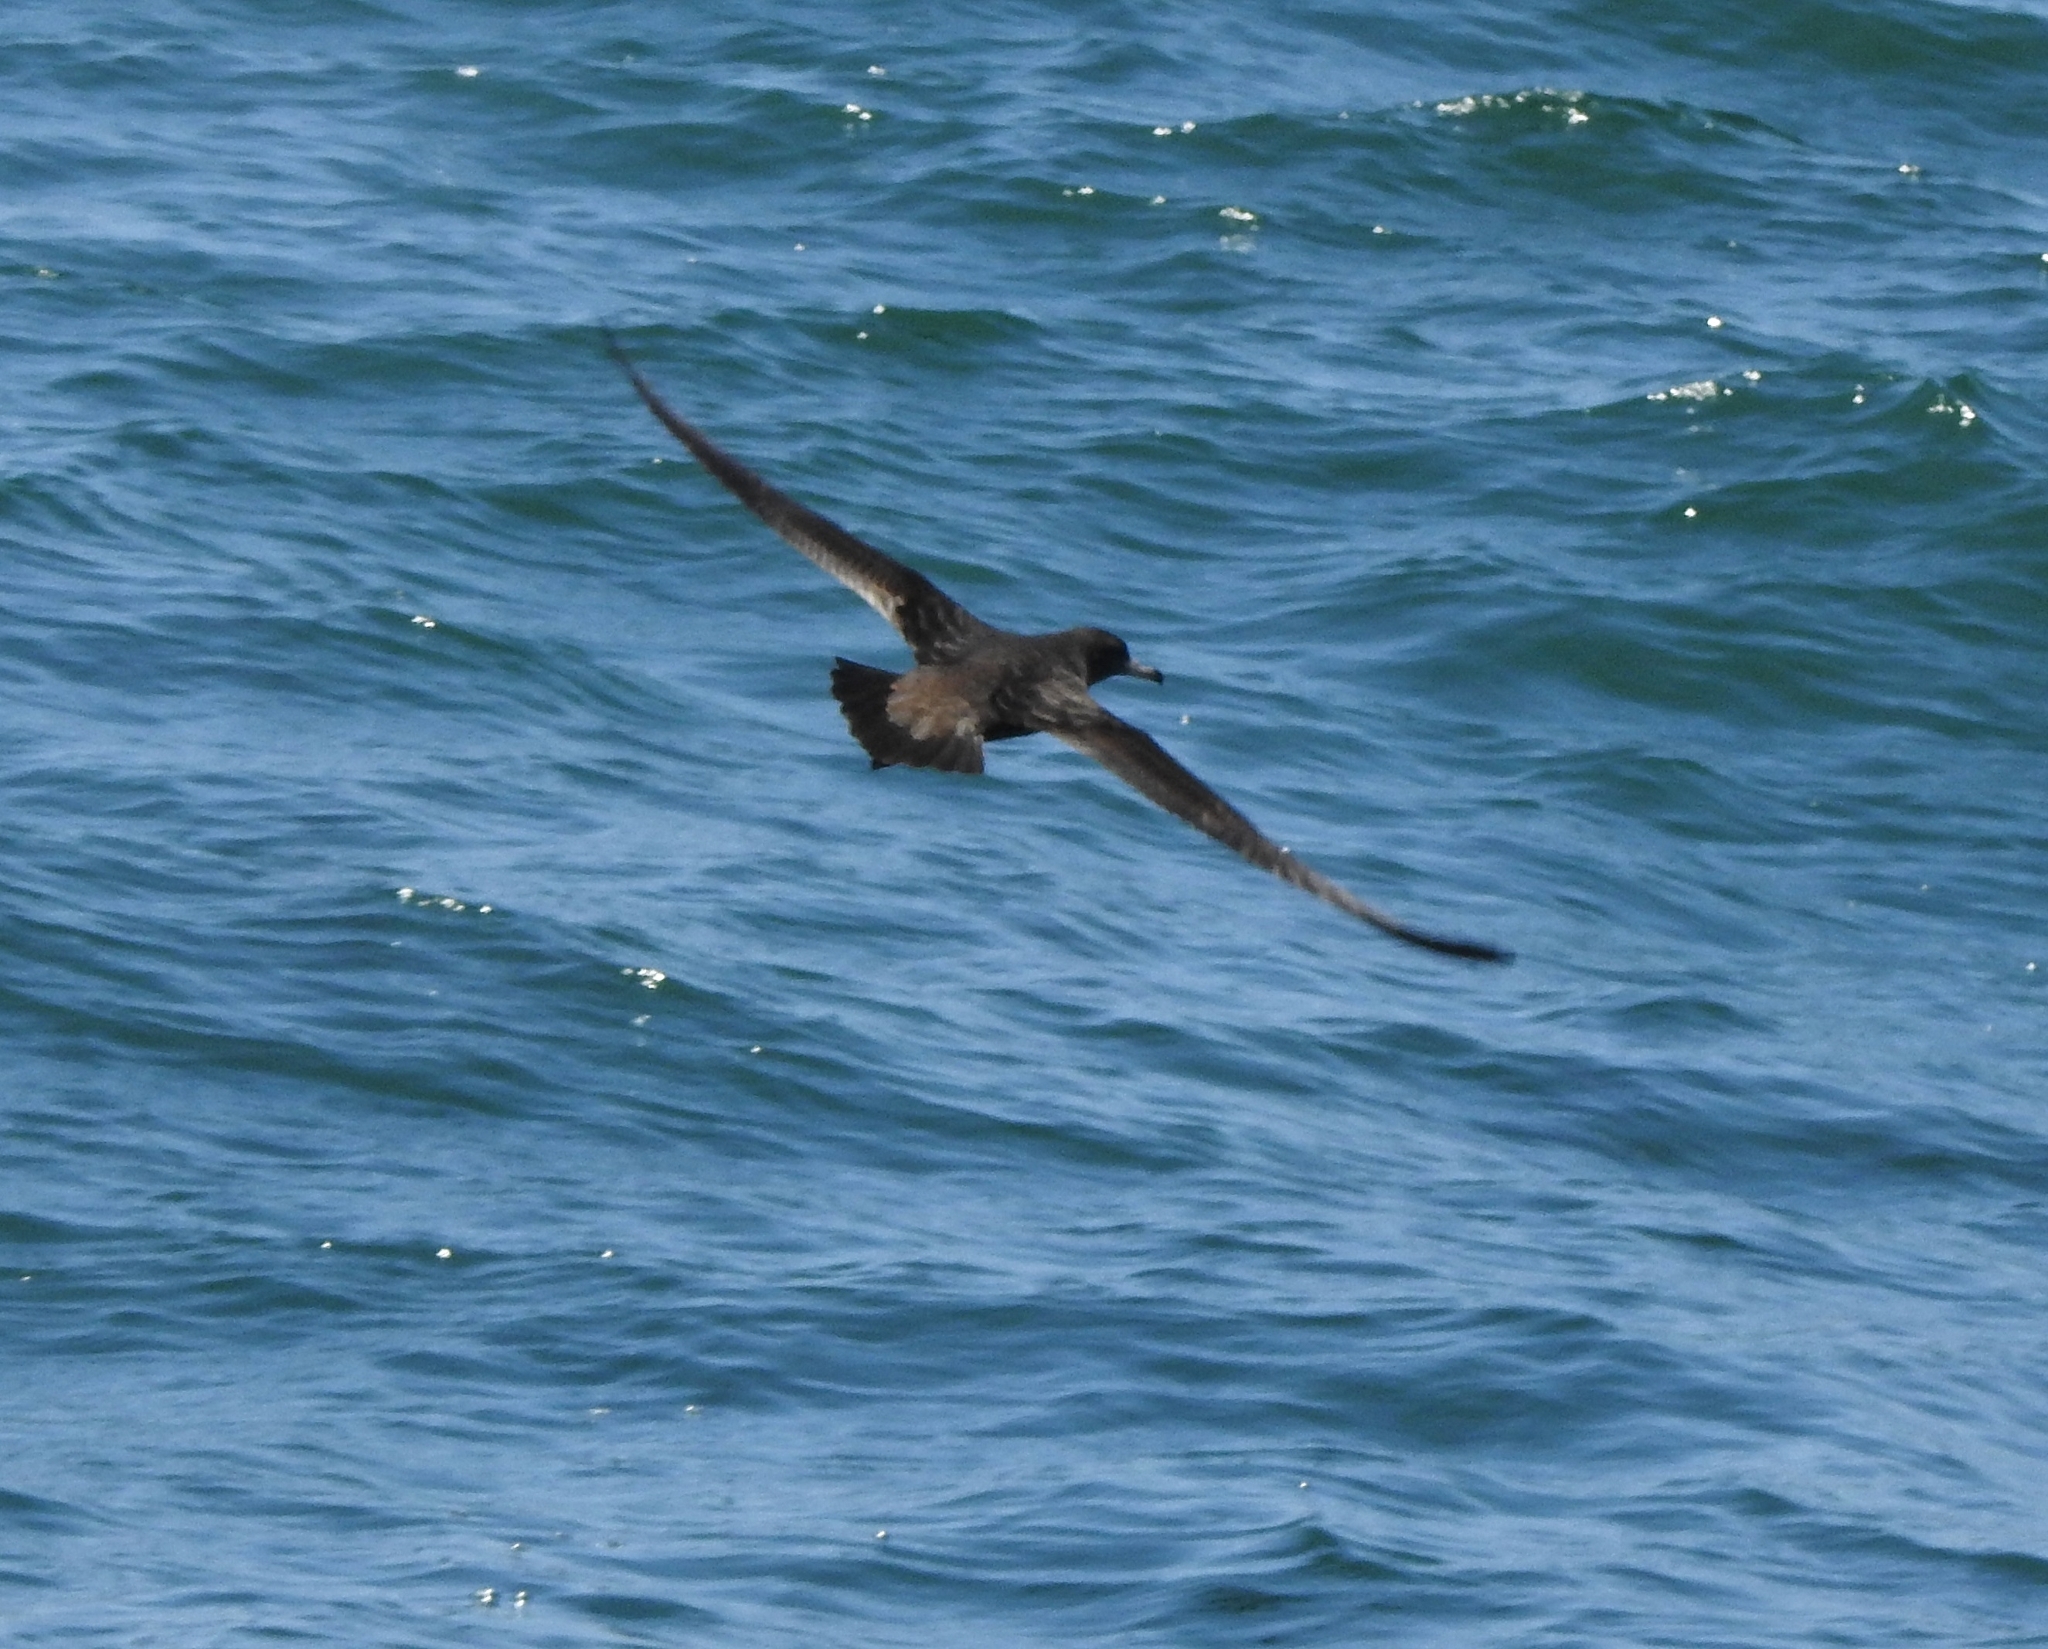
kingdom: Animalia
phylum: Chordata
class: Aves
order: Procellariiformes
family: Procellariidae
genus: Puffinus
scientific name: Puffinus carneipes
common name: Flesh-footed shearwater
